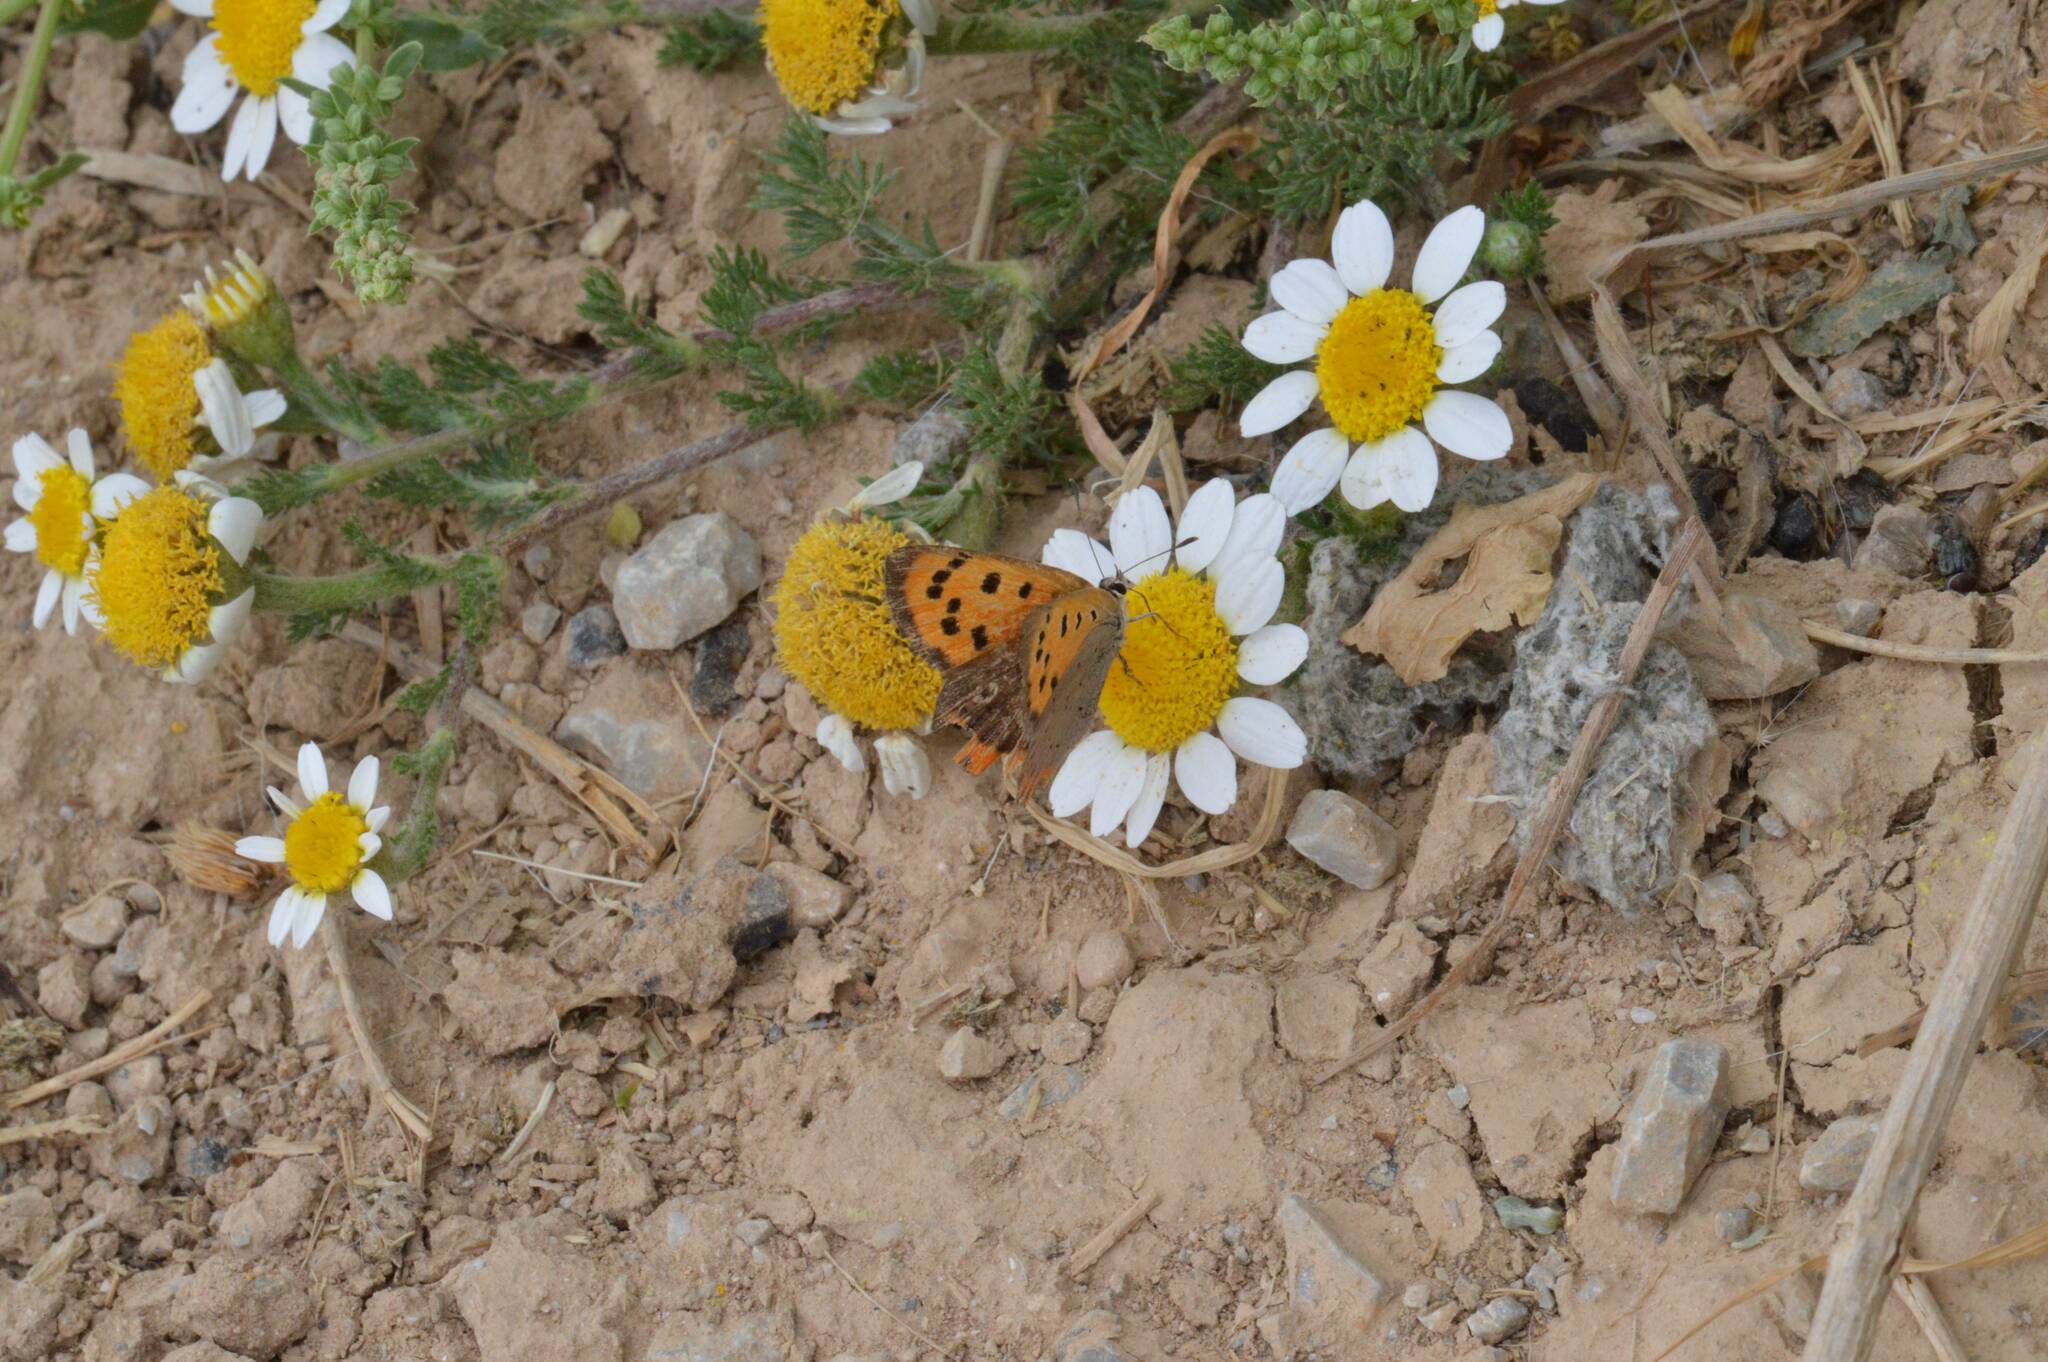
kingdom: Animalia
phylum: Arthropoda
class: Insecta
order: Lepidoptera
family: Lycaenidae
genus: Lycaena
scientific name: Lycaena phlaeas
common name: Small copper
